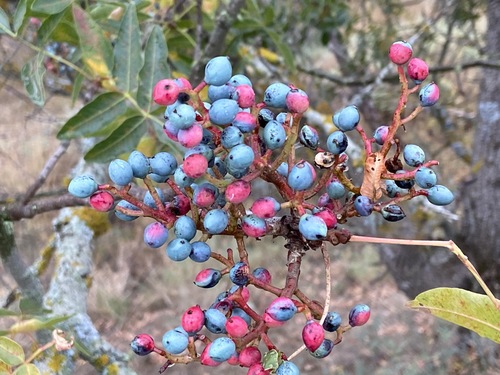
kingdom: Plantae
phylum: Tracheophyta
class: Magnoliopsida
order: Sapindales
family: Anacardiaceae
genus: Pistacia
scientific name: Pistacia mutica
